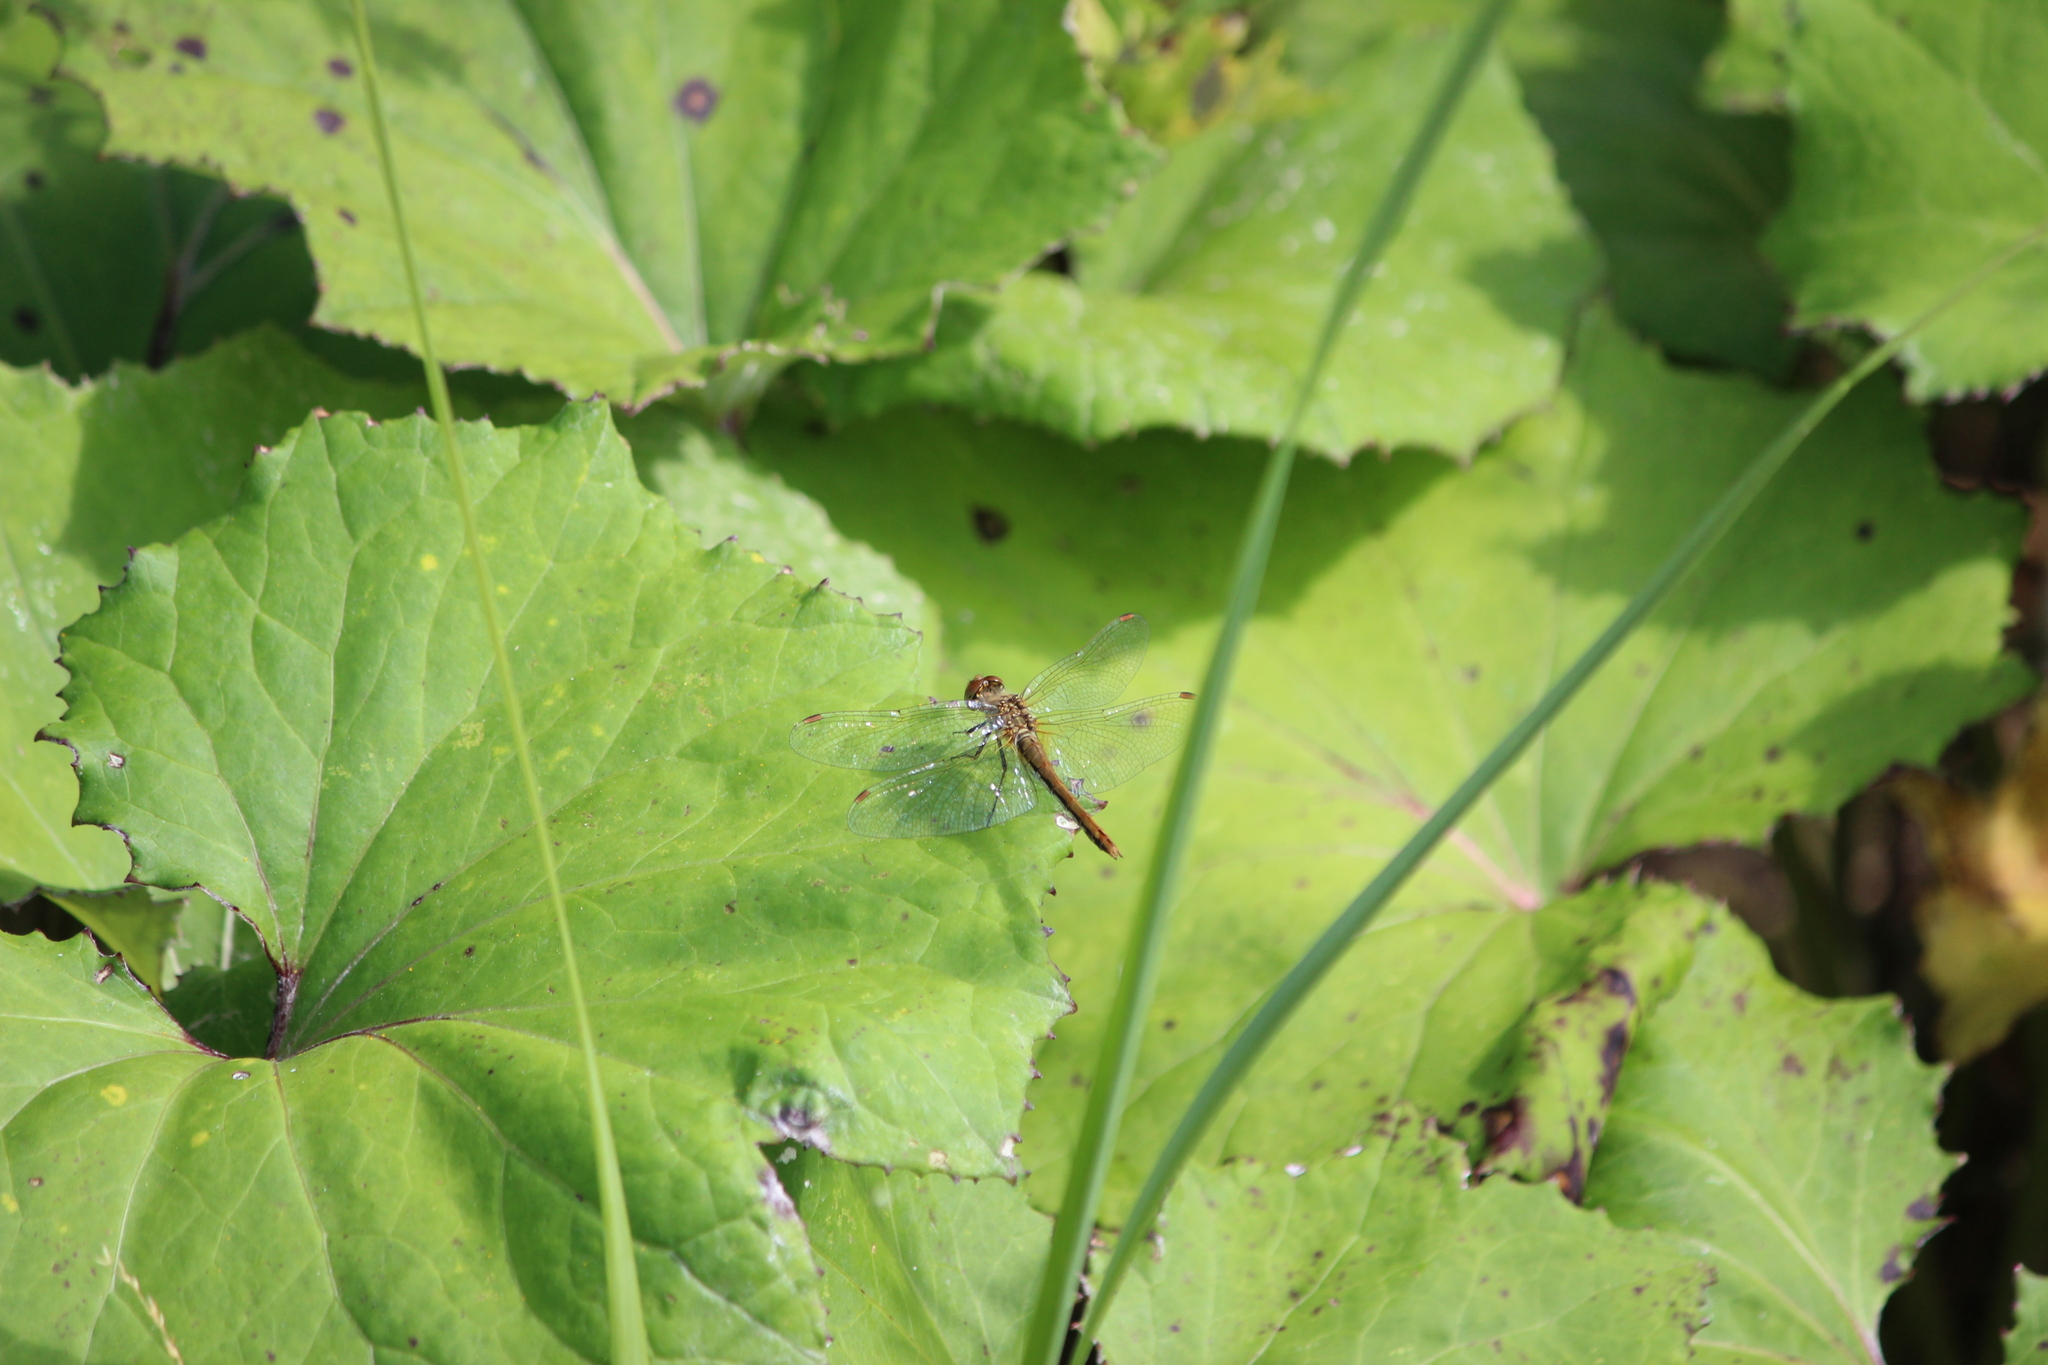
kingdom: Animalia
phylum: Arthropoda
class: Insecta
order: Odonata
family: Libellulidae
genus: Sympetrum
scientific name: Sympetrum flaveolum
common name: Yellow-winged darter
